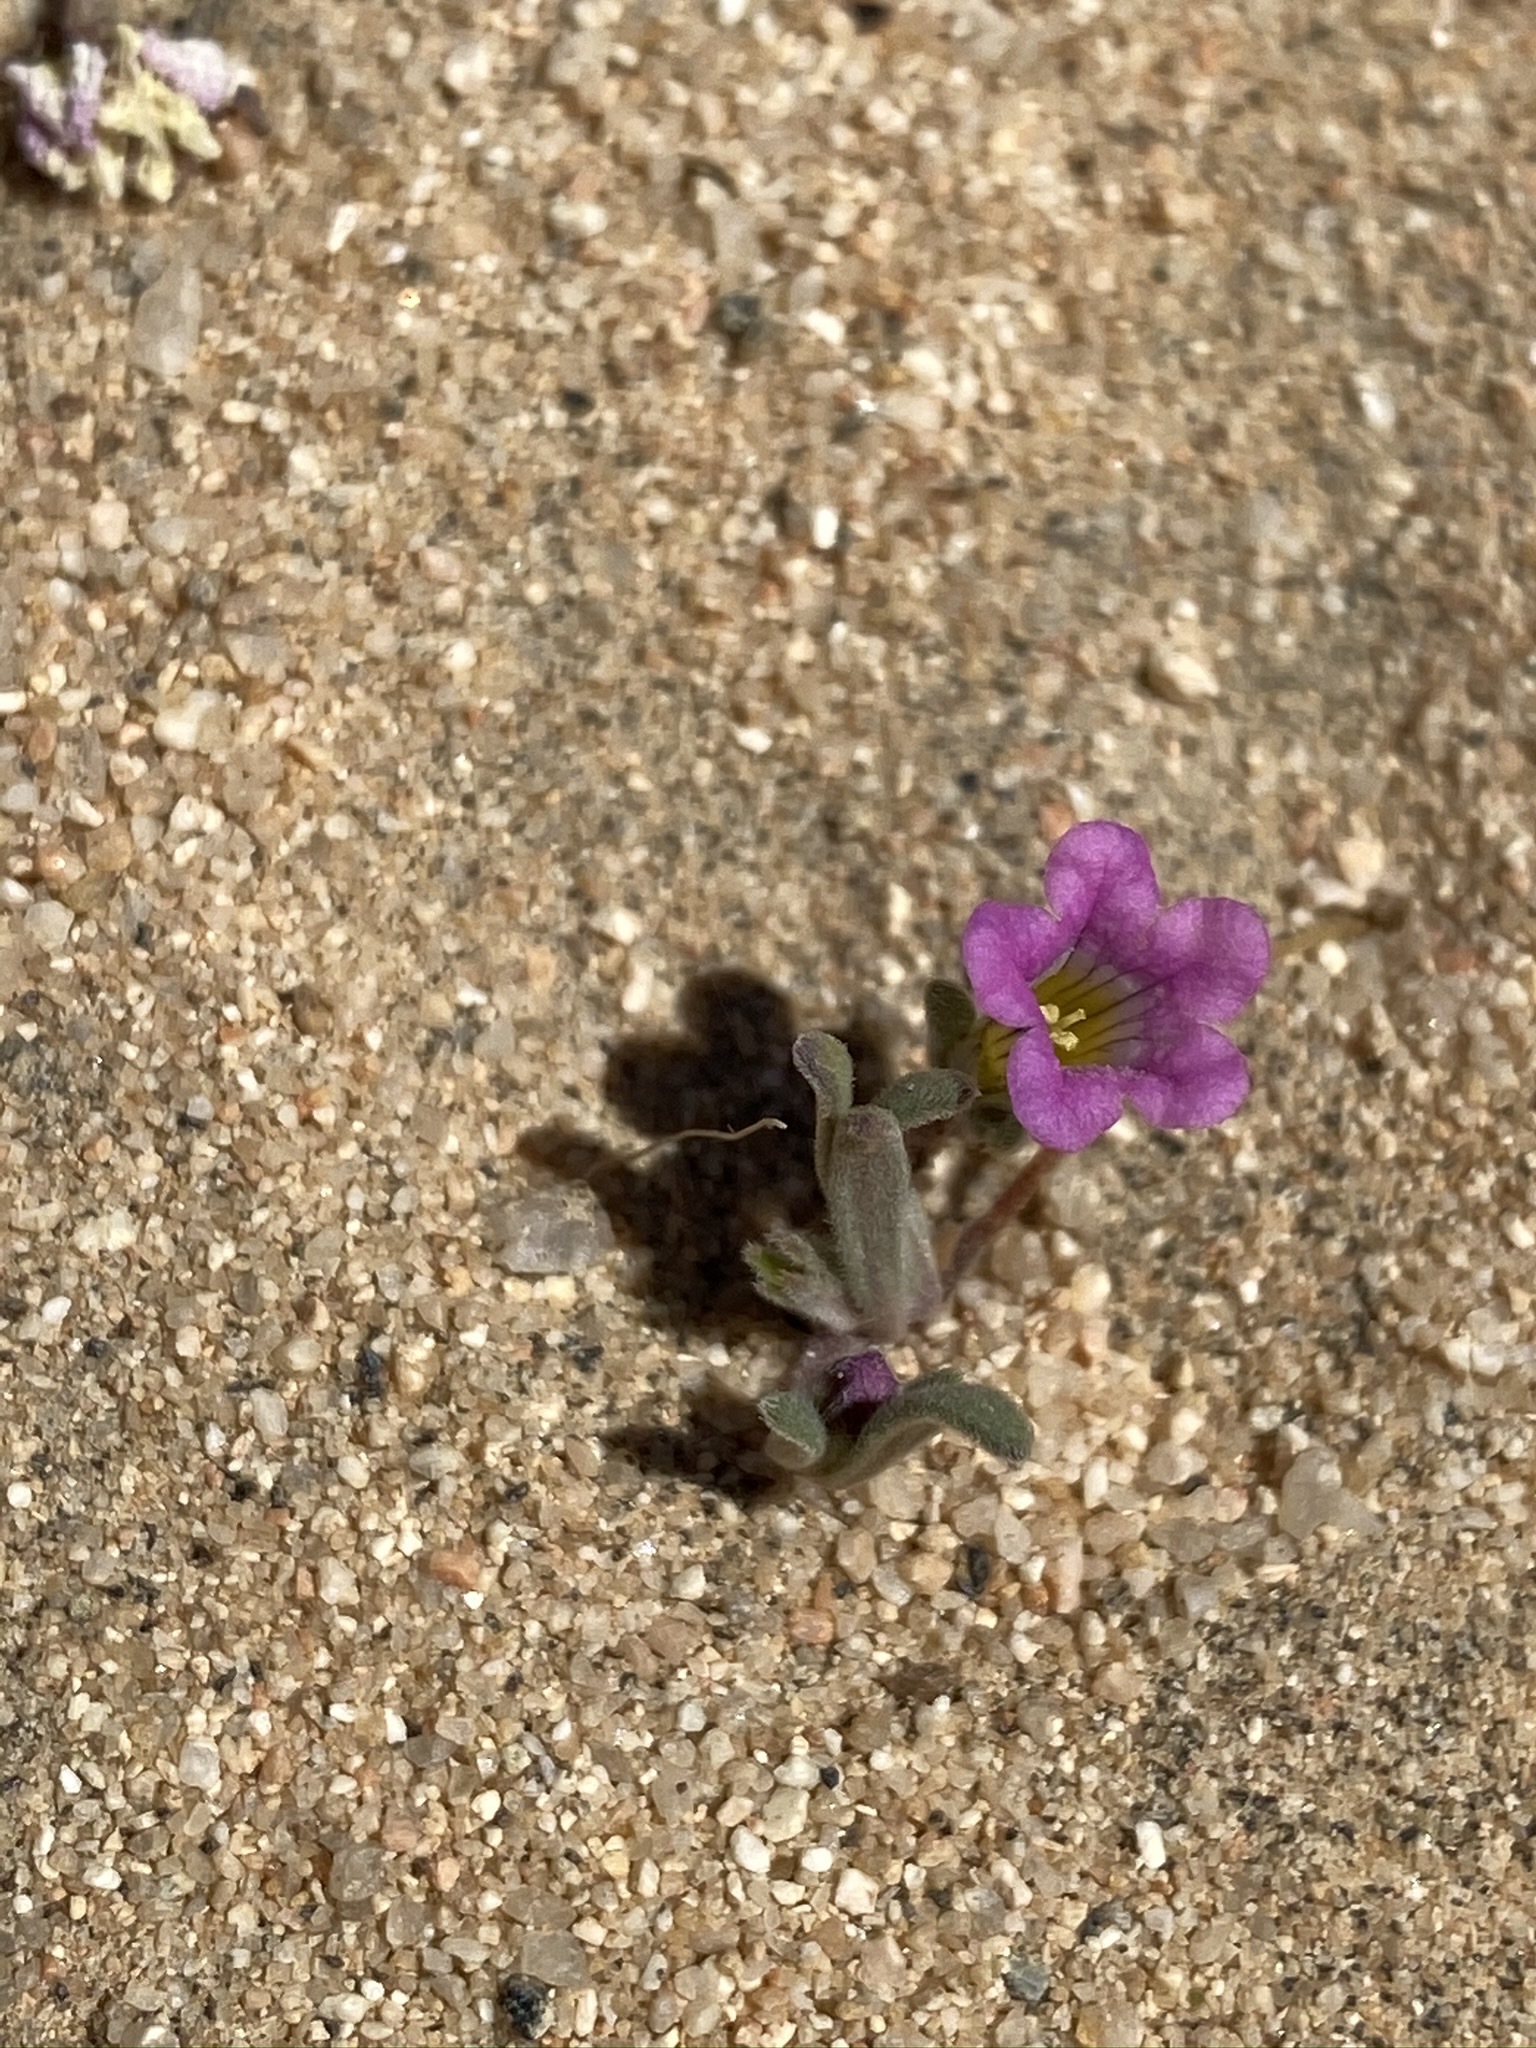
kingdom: Plantae
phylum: Tracheophyta
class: Magnoliopsida
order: Boraginales
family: Namaceae
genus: Nama
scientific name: Nama demissa
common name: Leafy nama
